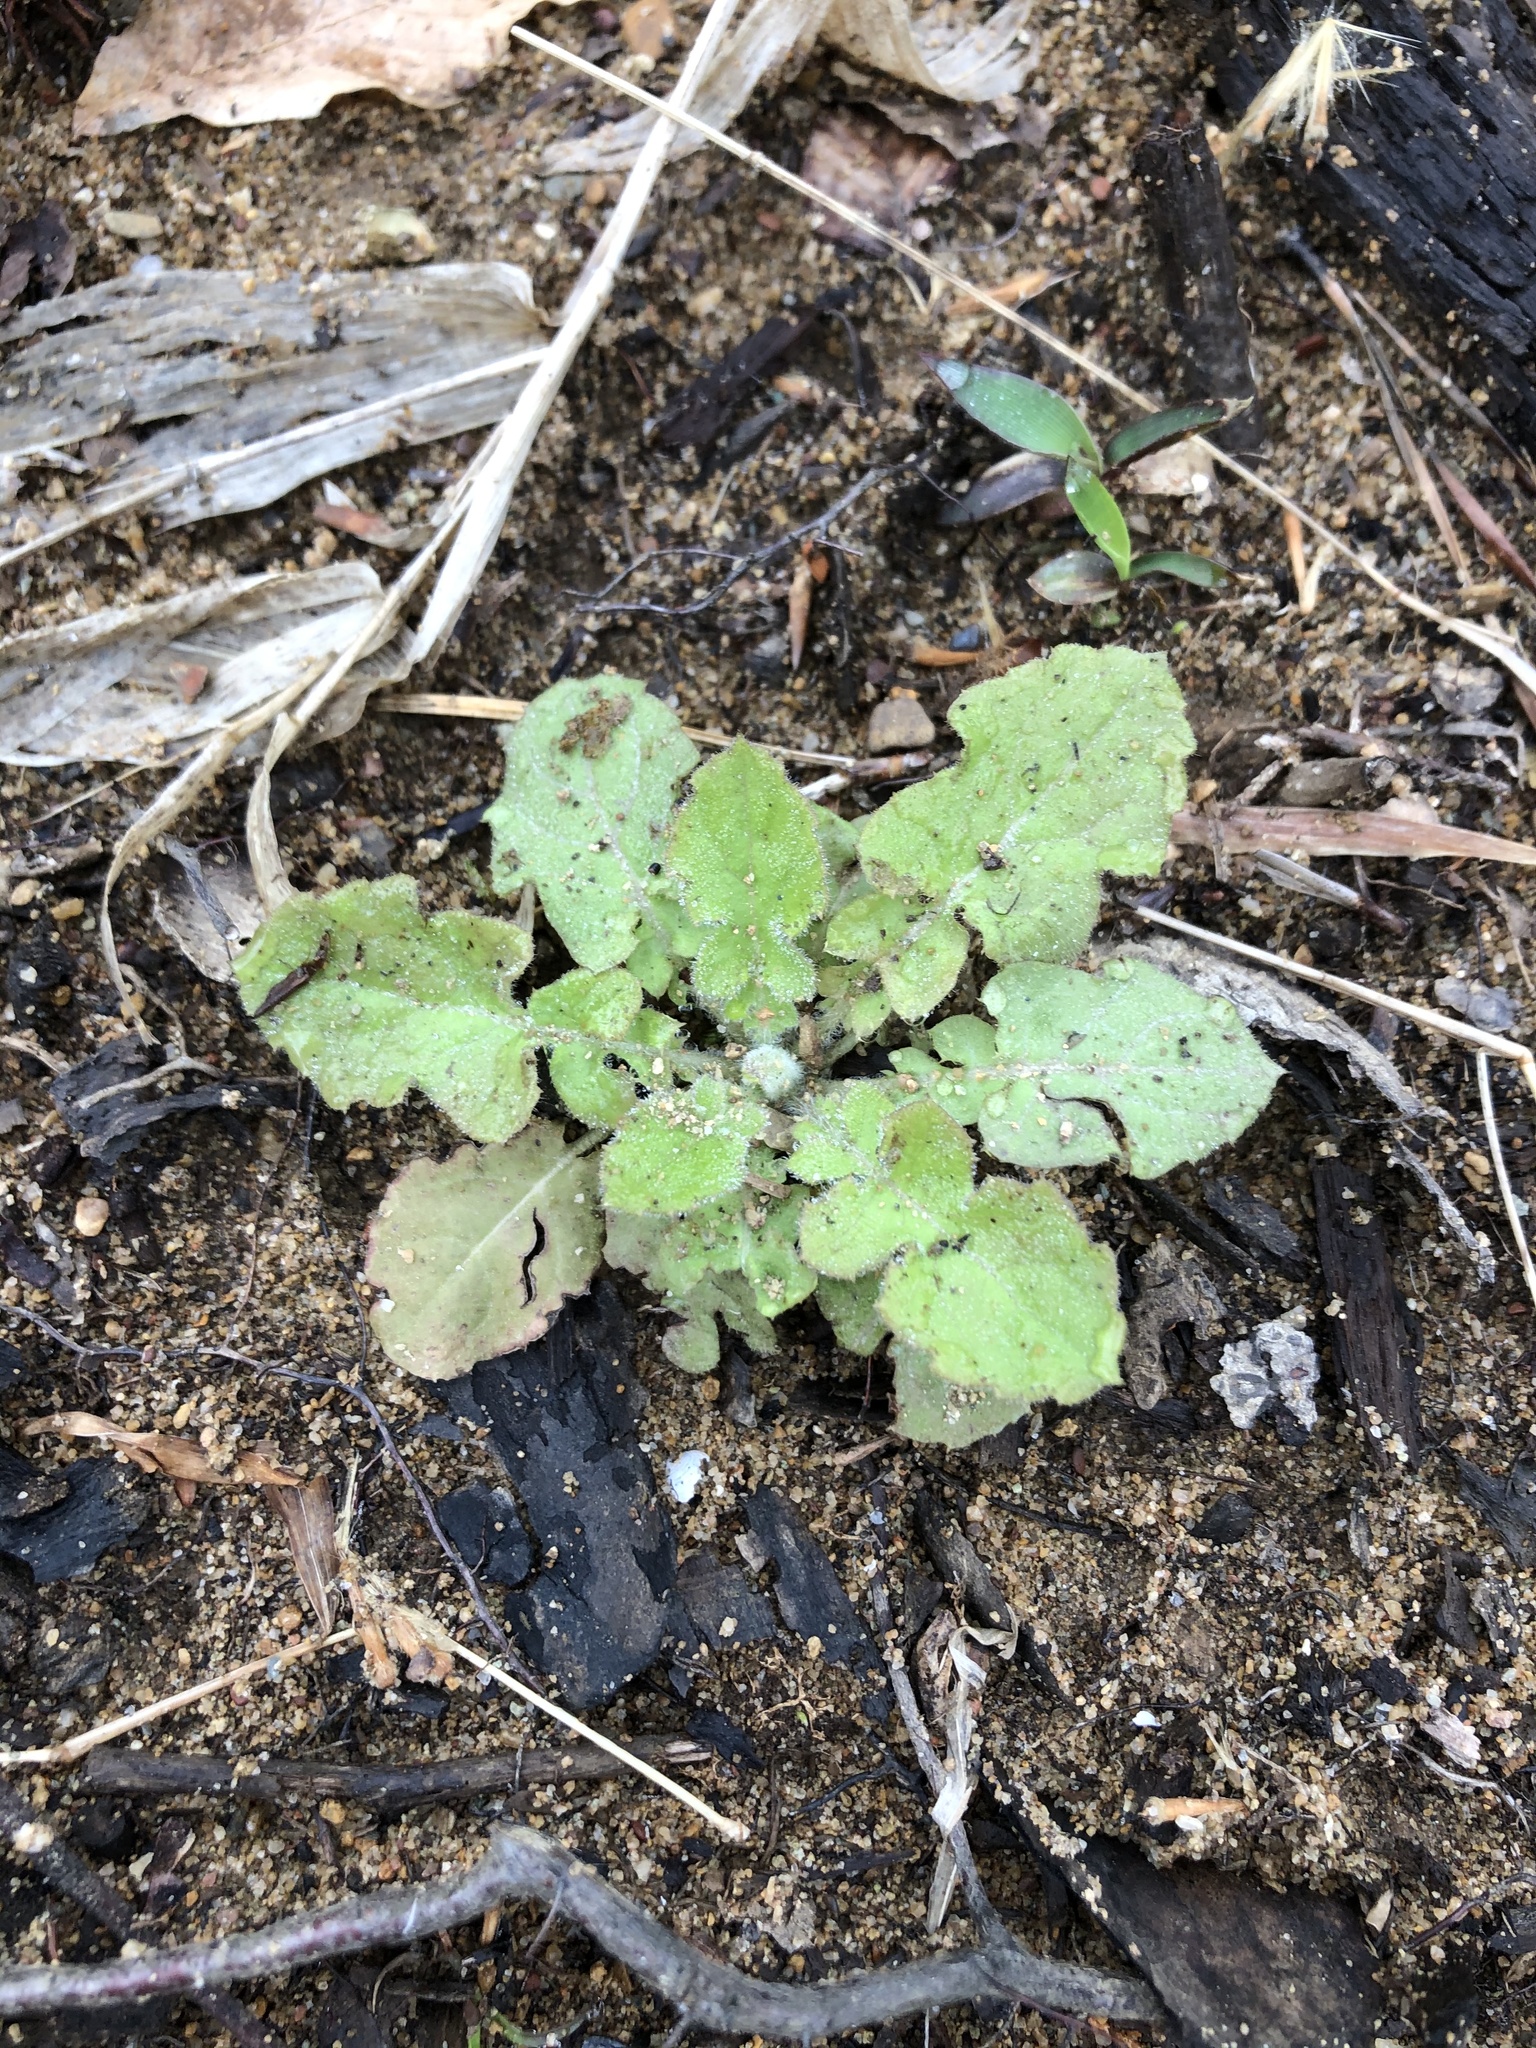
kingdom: Plantae
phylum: Tracheophyta
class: Magnoliopsida
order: Asterales
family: Asteraceae
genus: Youngia
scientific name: Youngia japonica
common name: Oriental false hawksbeard
